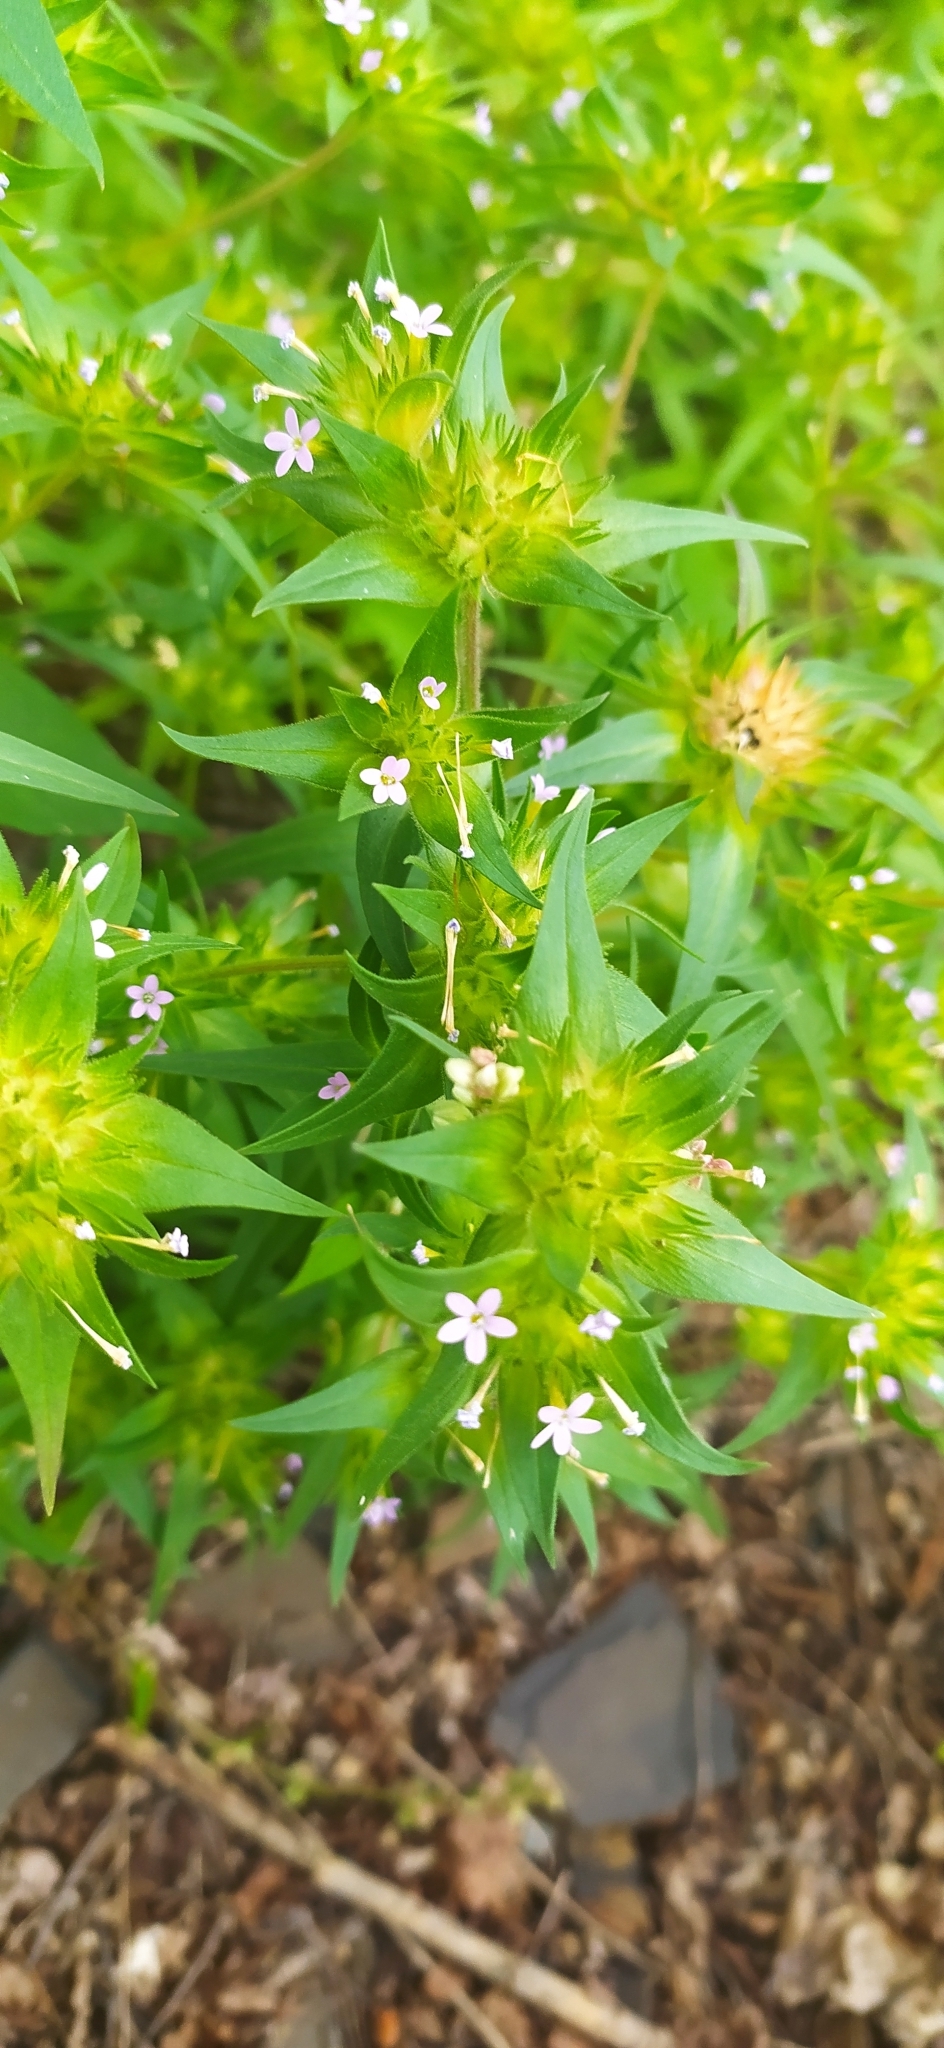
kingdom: Plantae
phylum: Tracheophyta
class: Magnoliopsida
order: Ericales
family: Polemoniaceae
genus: Collomia
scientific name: Collomia linearis
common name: Tiny trumpet
